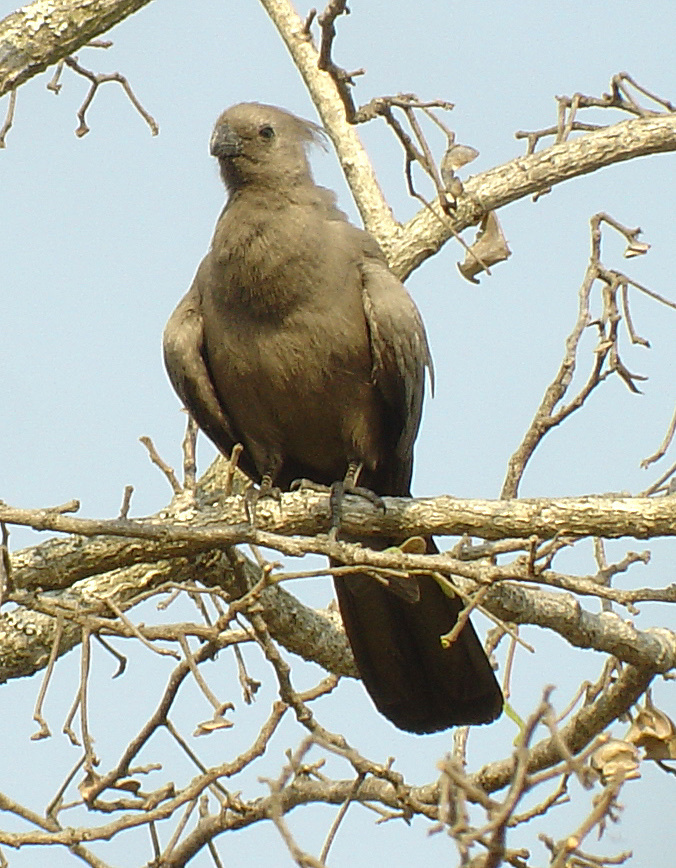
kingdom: Animalia
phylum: Chordata
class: Aves
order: Musophagiformes
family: Musophagidae
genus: Corythaixoides
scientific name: Corythaixoides concolor
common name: Grey go-away-bird
